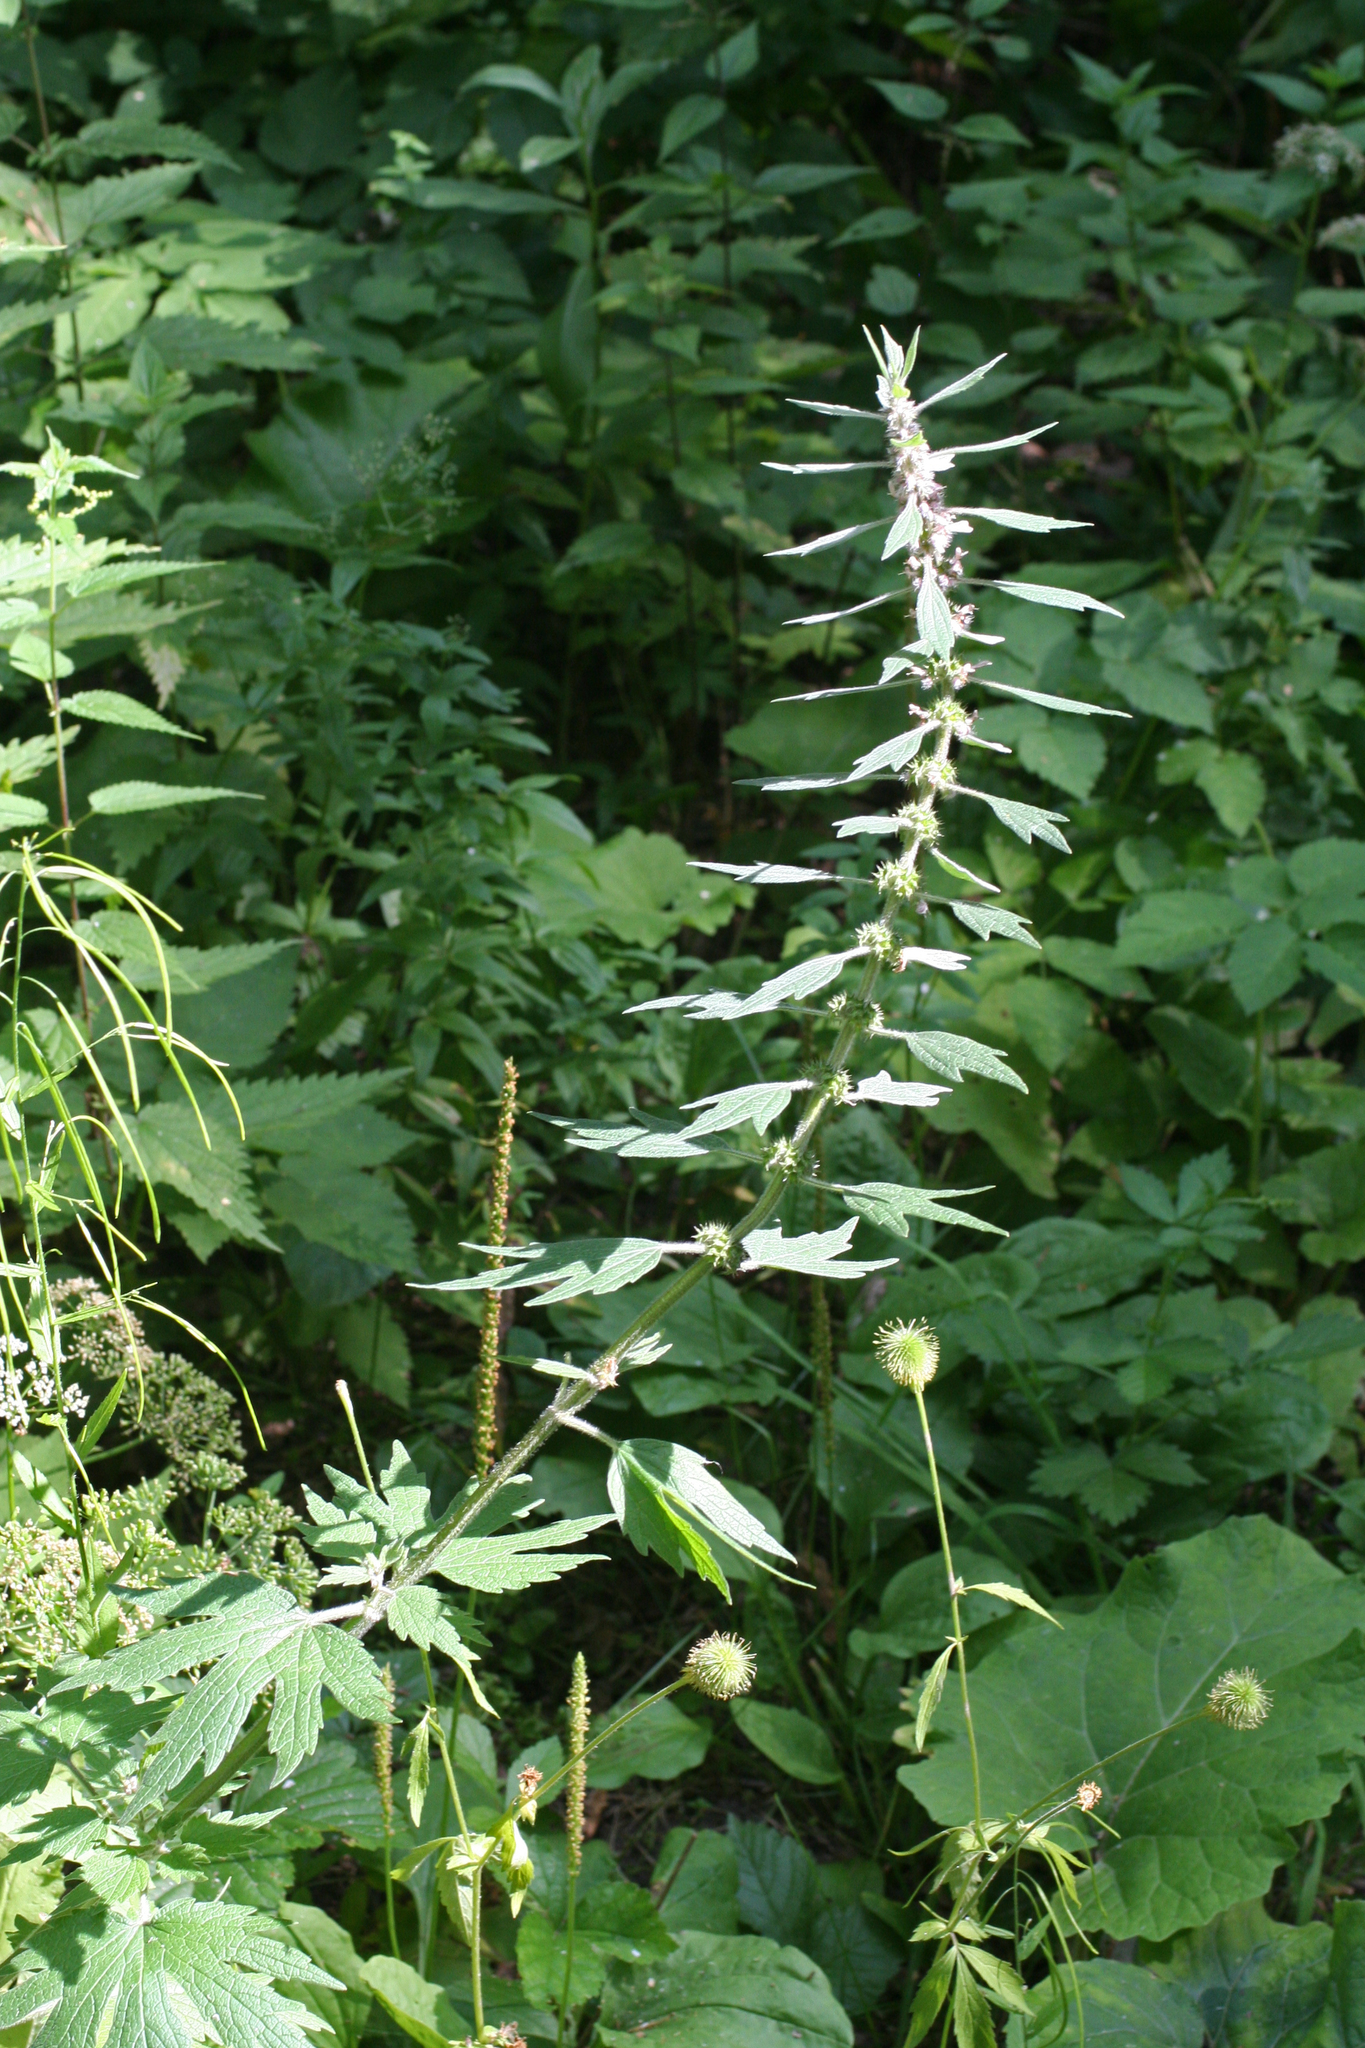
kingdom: Plantae
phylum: Tracheophyta
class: Magnoliopsida
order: Lamiales
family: Lamiaceae
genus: Leonurus
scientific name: Leonurus quinquelobatus
